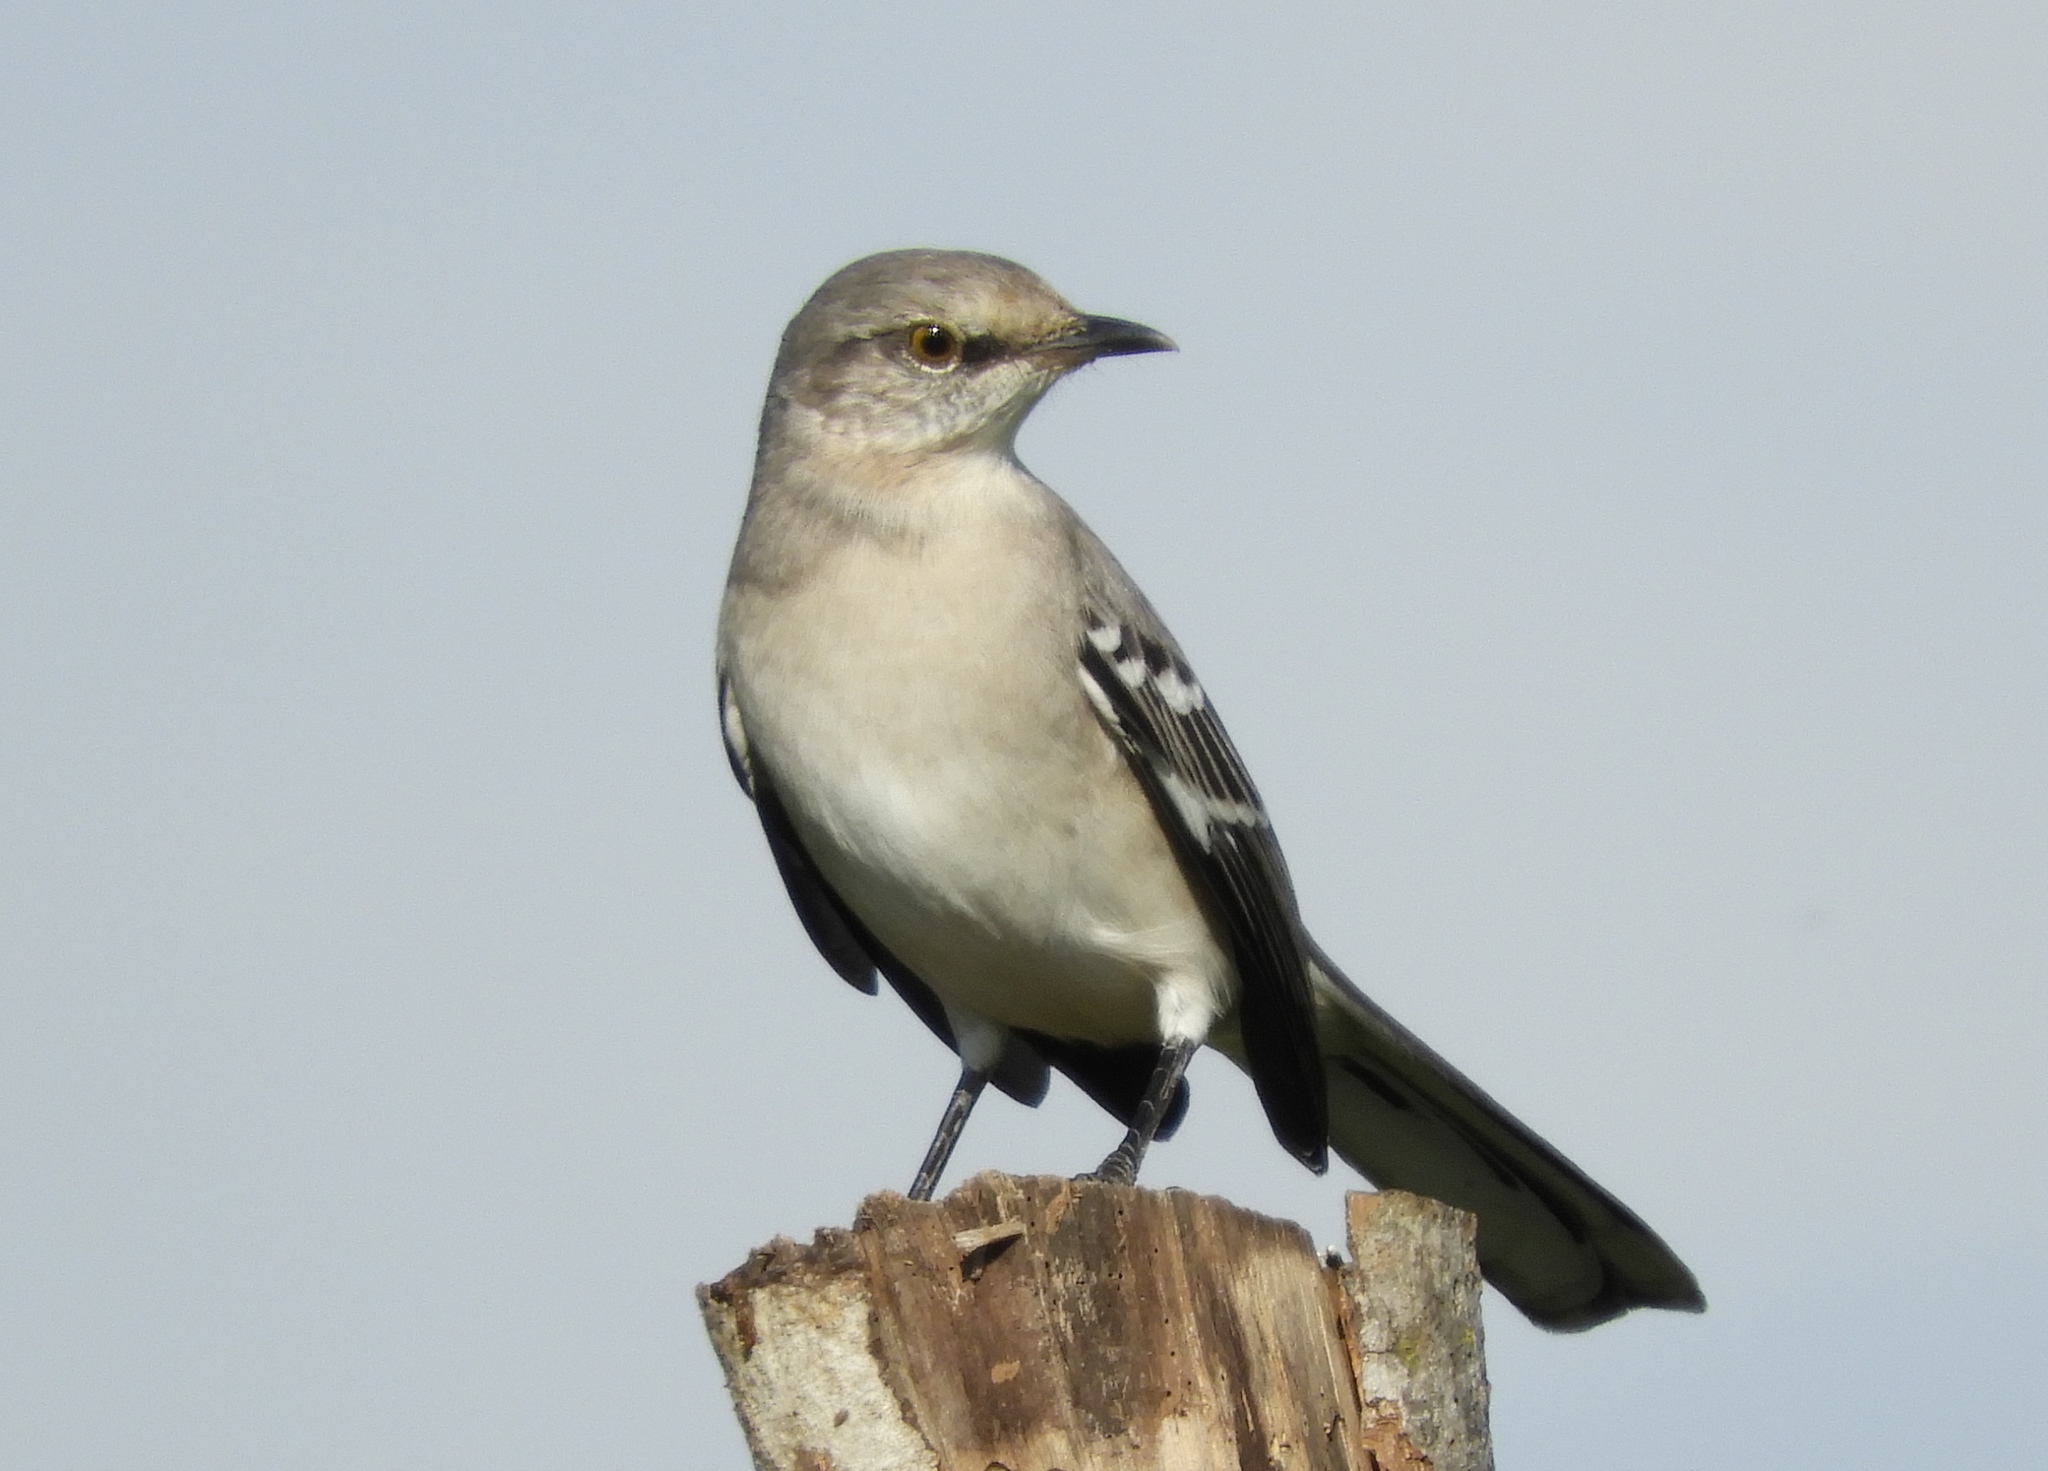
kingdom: Animalia
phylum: Chordata
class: Aves
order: Passeriformes
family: Mimidae
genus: Mimus
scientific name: Mimus polyglottos
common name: Northern mockingbird
